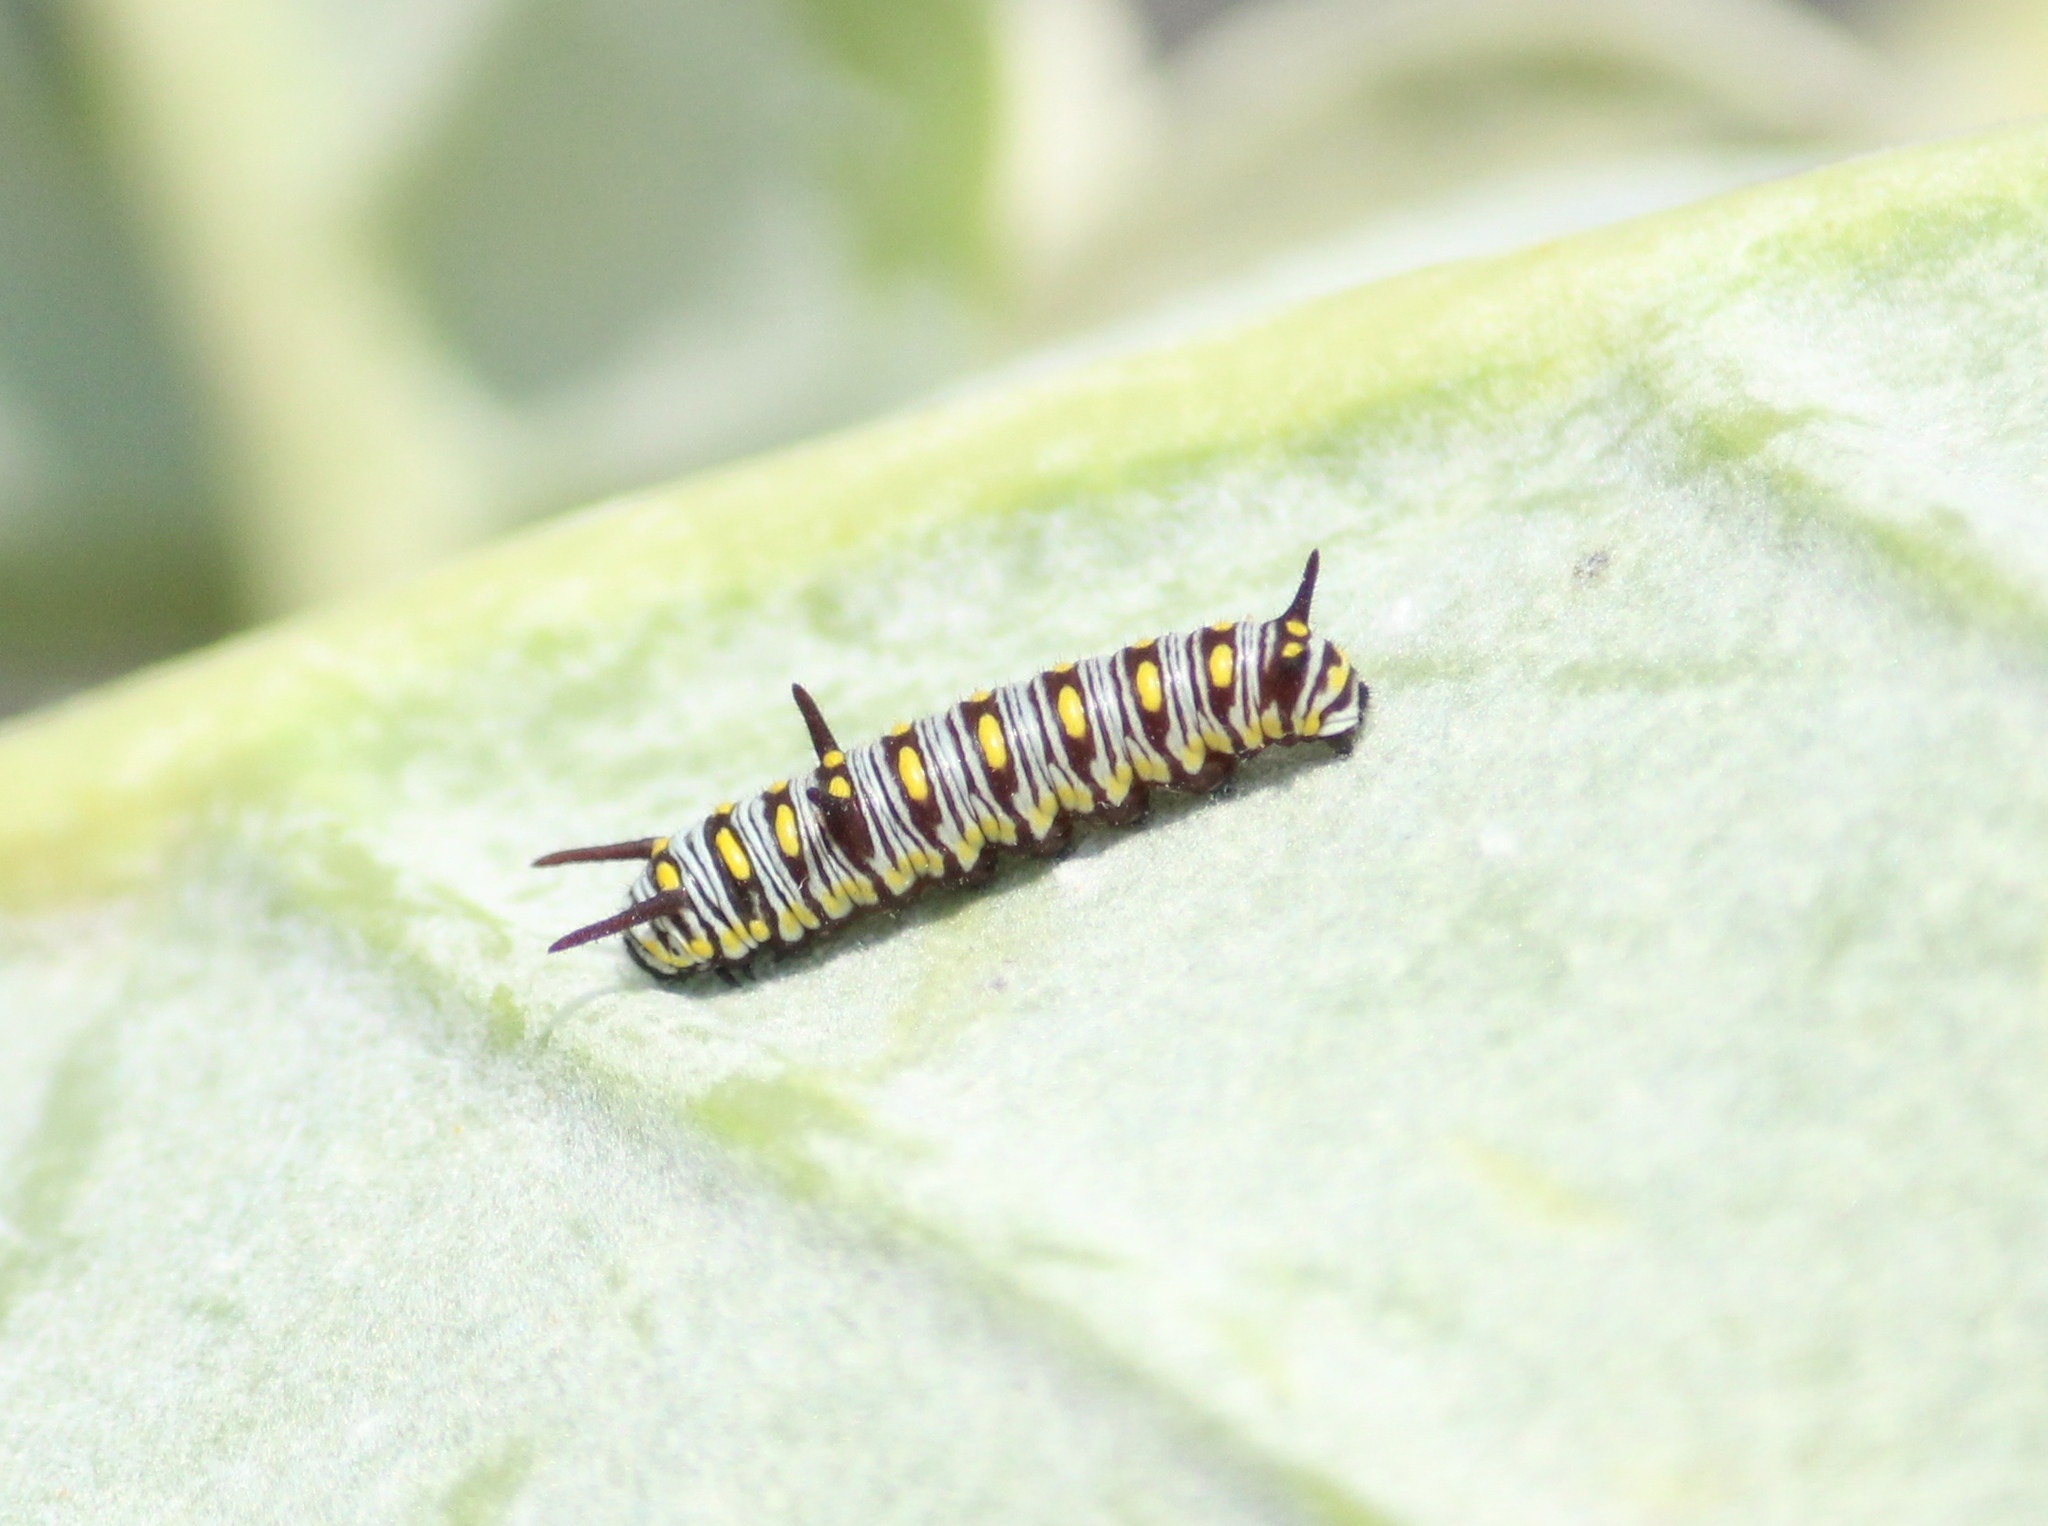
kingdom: Animalia
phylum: Arthropoda
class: Insecta
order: Lepidoptera
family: Nymphalidae
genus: Danaus
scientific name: Danaus chrysippus
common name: Plain tiger
